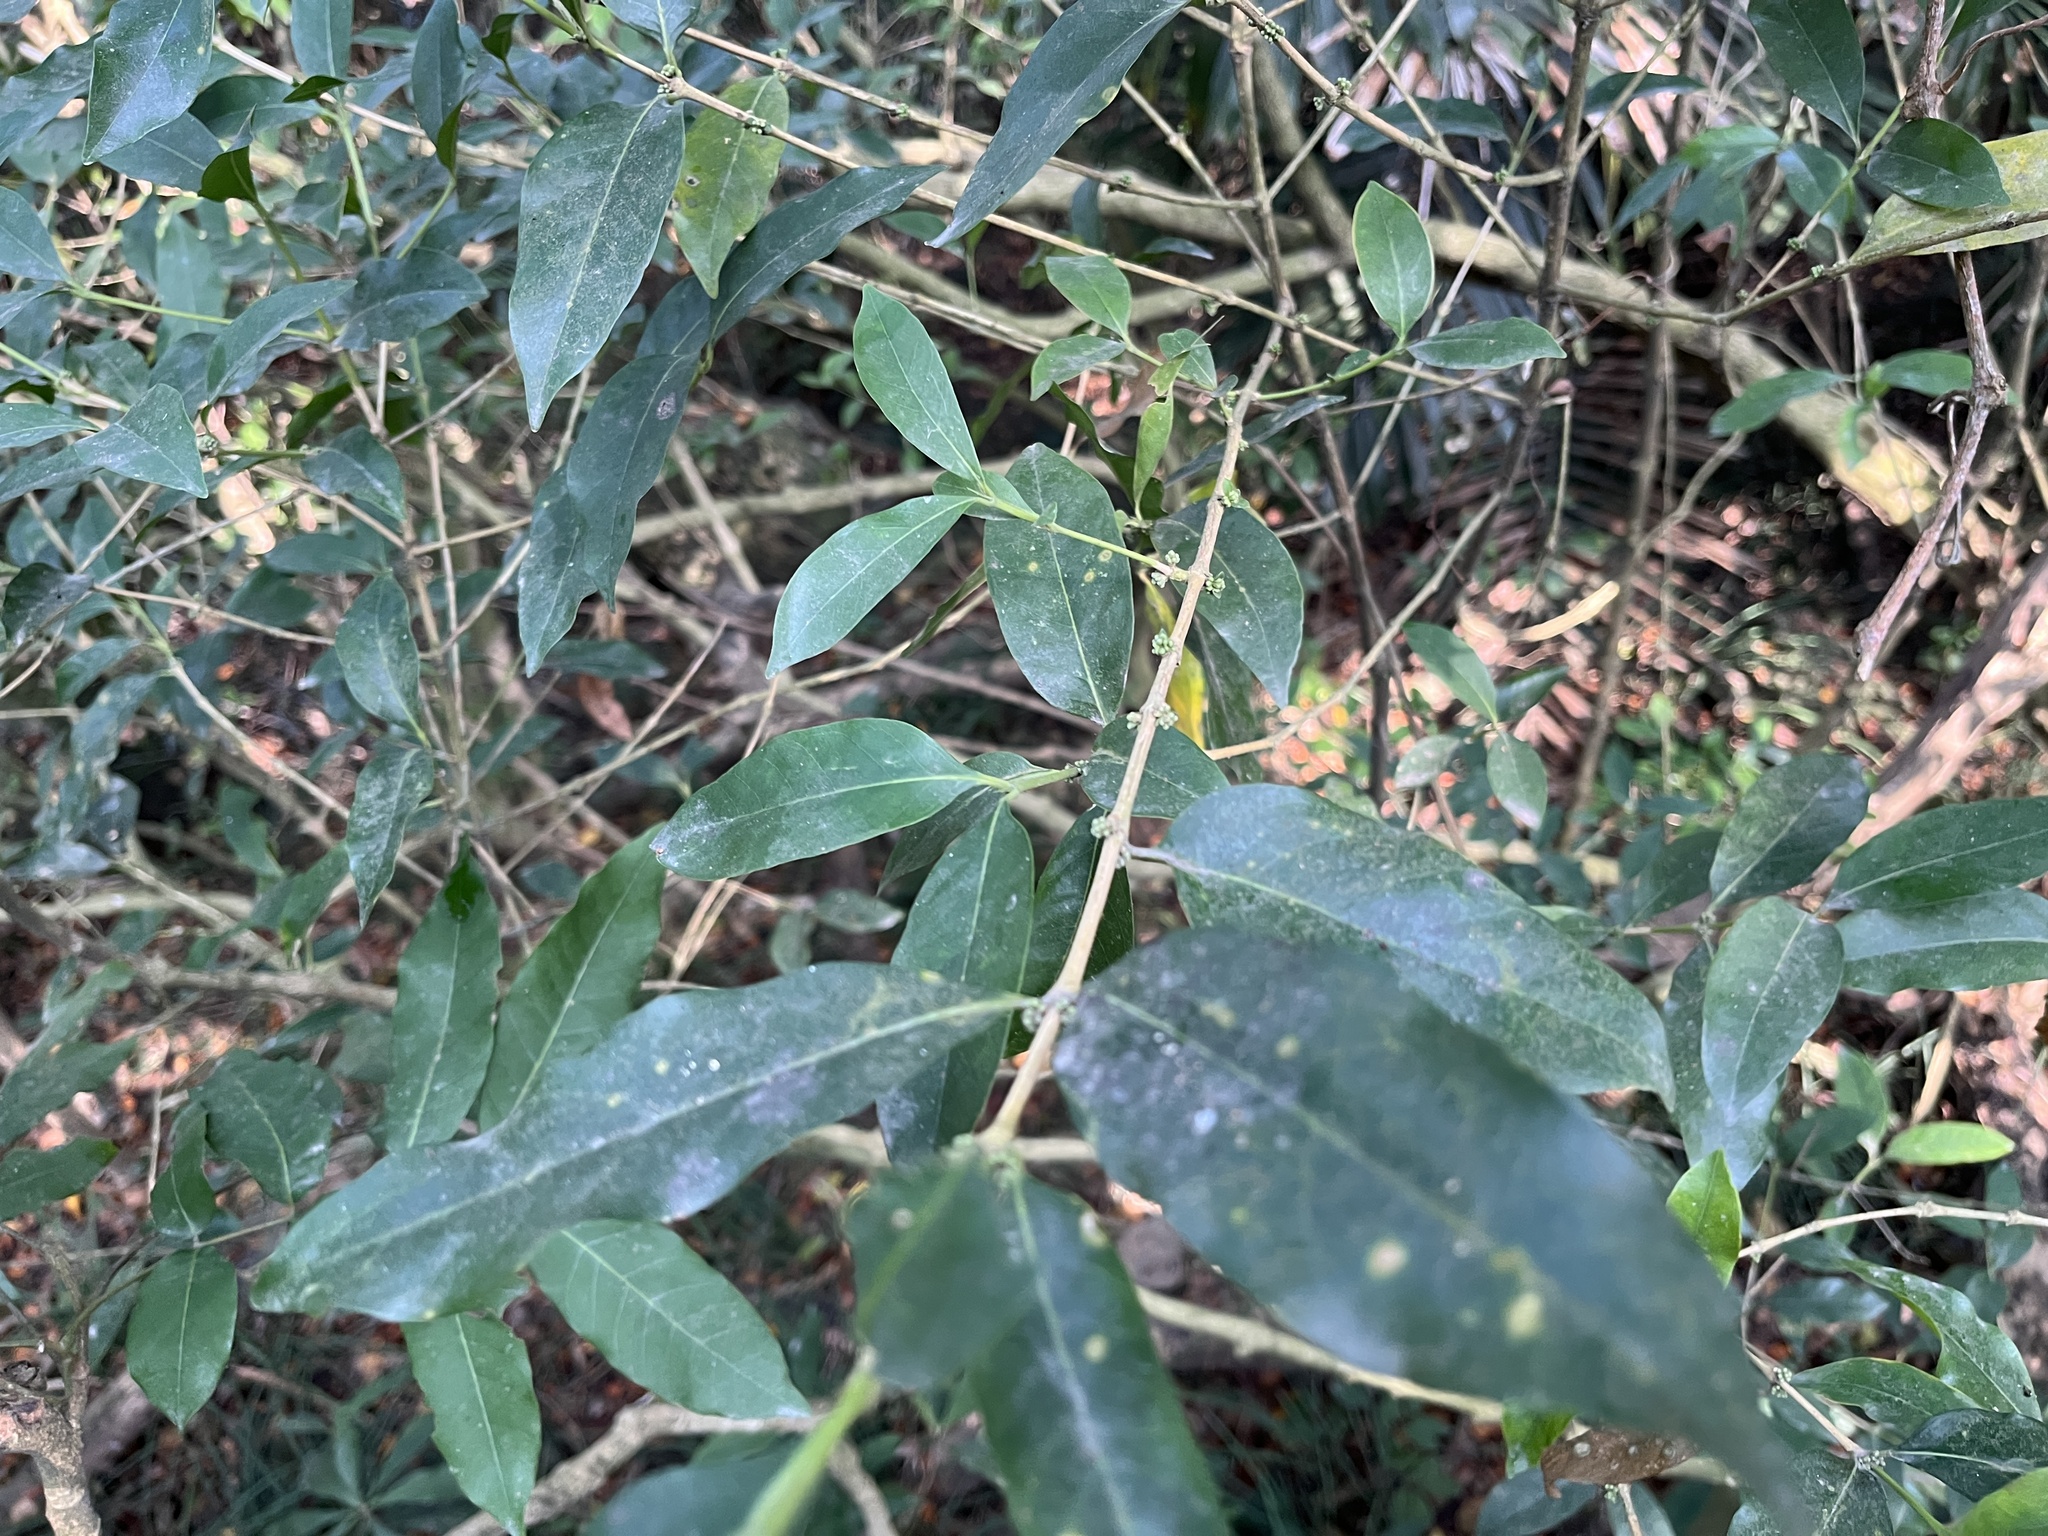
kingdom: Plantae
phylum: Tracheophyta
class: Magnoliopsida
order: Gentianales
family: Rubiaceae
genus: Diplospora
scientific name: Diplospora dubia
